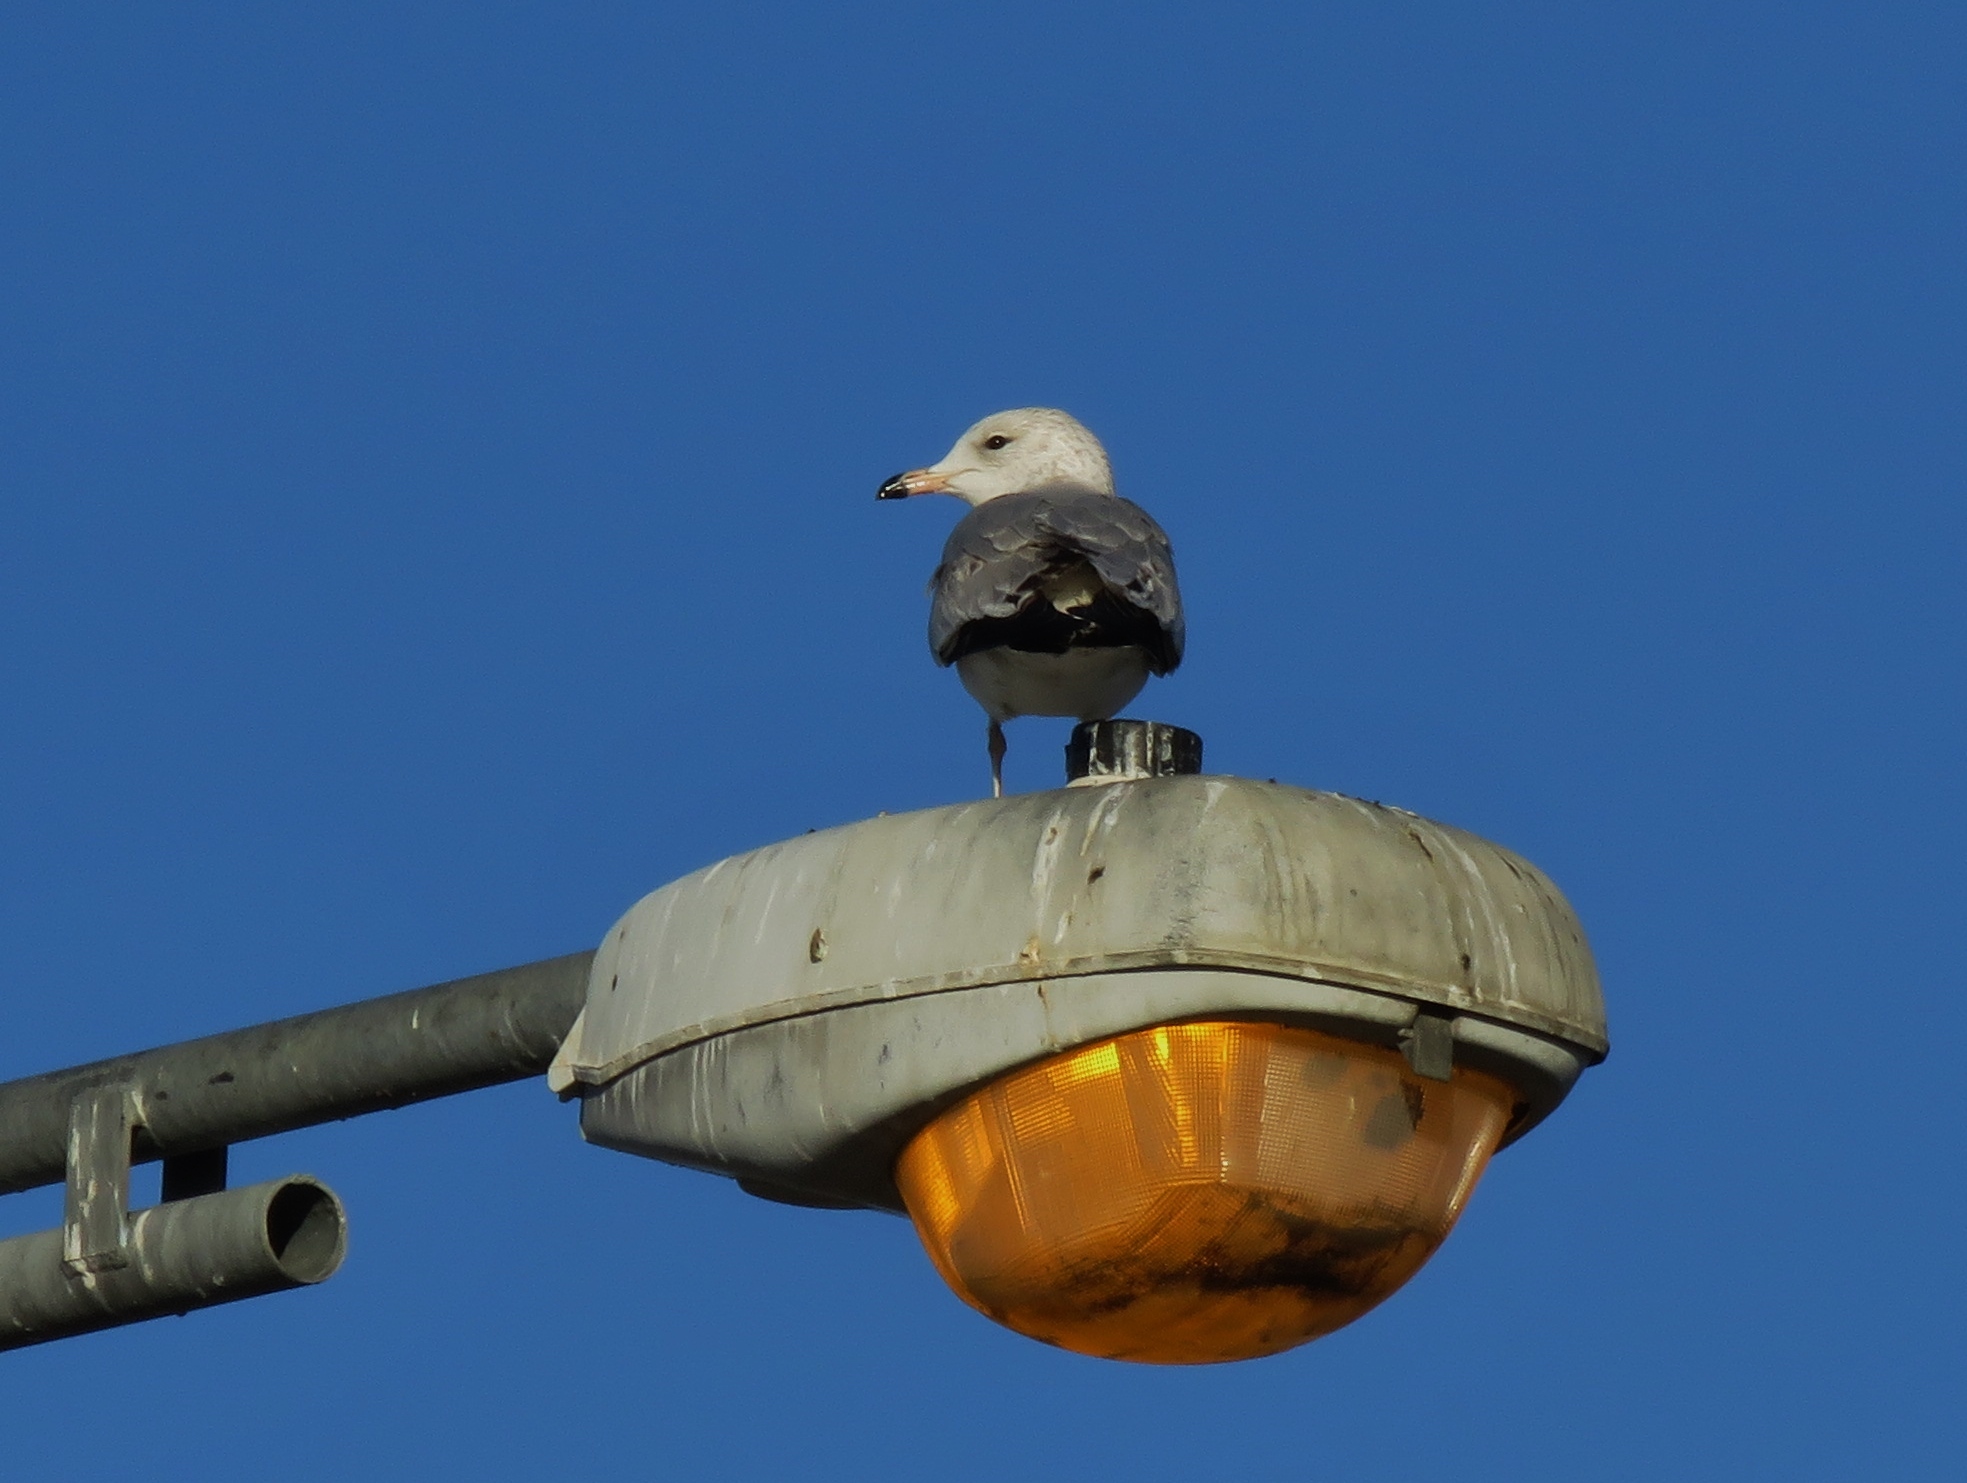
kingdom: Animalia
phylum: Chordata
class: Aves
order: Charadriiformes
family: Laridae
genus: Larus
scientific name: Larus delawarensis
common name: Ring-billed gull
